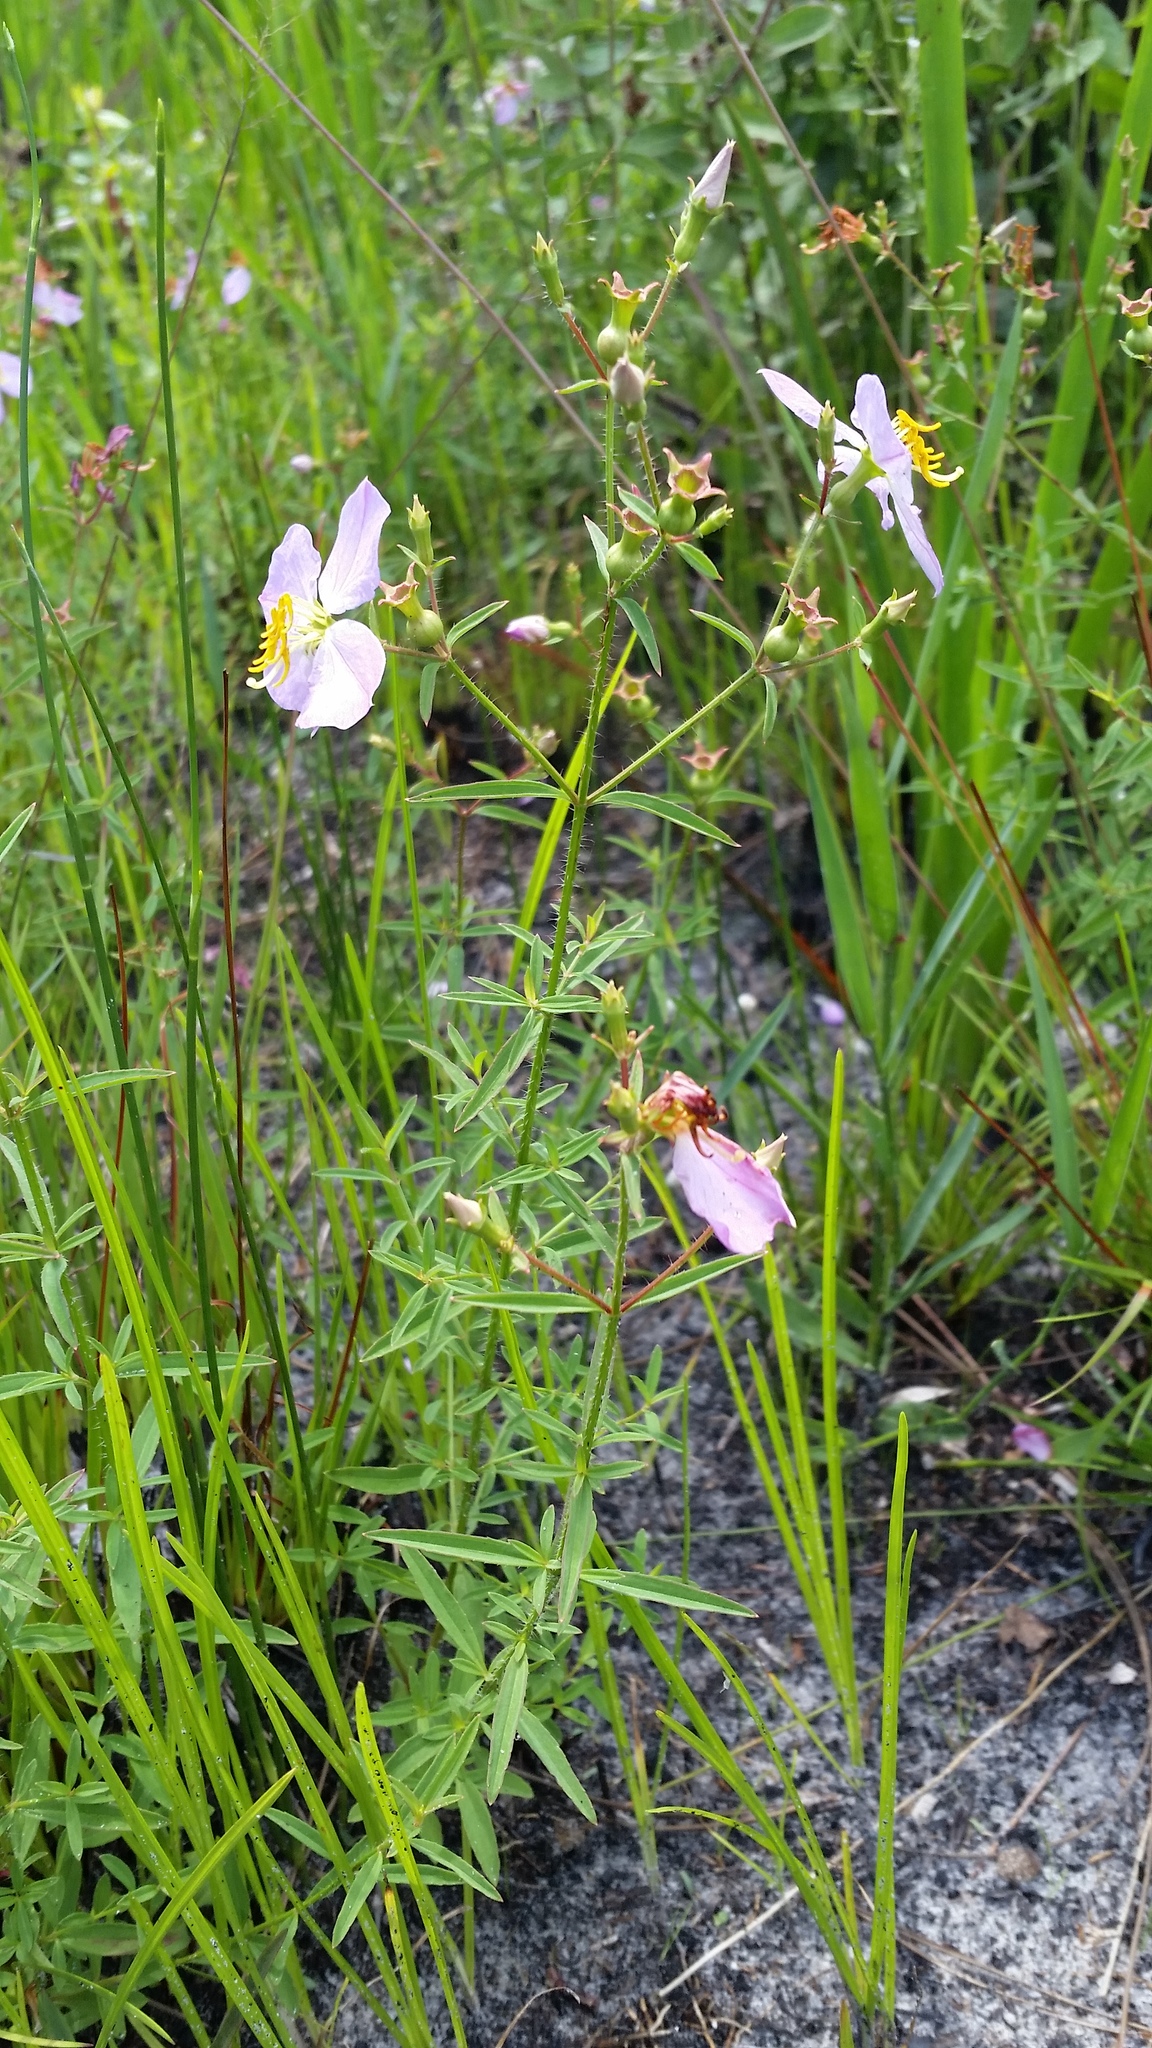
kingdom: Plantae
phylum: Tracheophyta
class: Magnoliopsida
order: Myrtales
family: Melastomataceae
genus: Rhexia
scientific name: Rhexia mariana
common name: Dull meadow-pitcher
